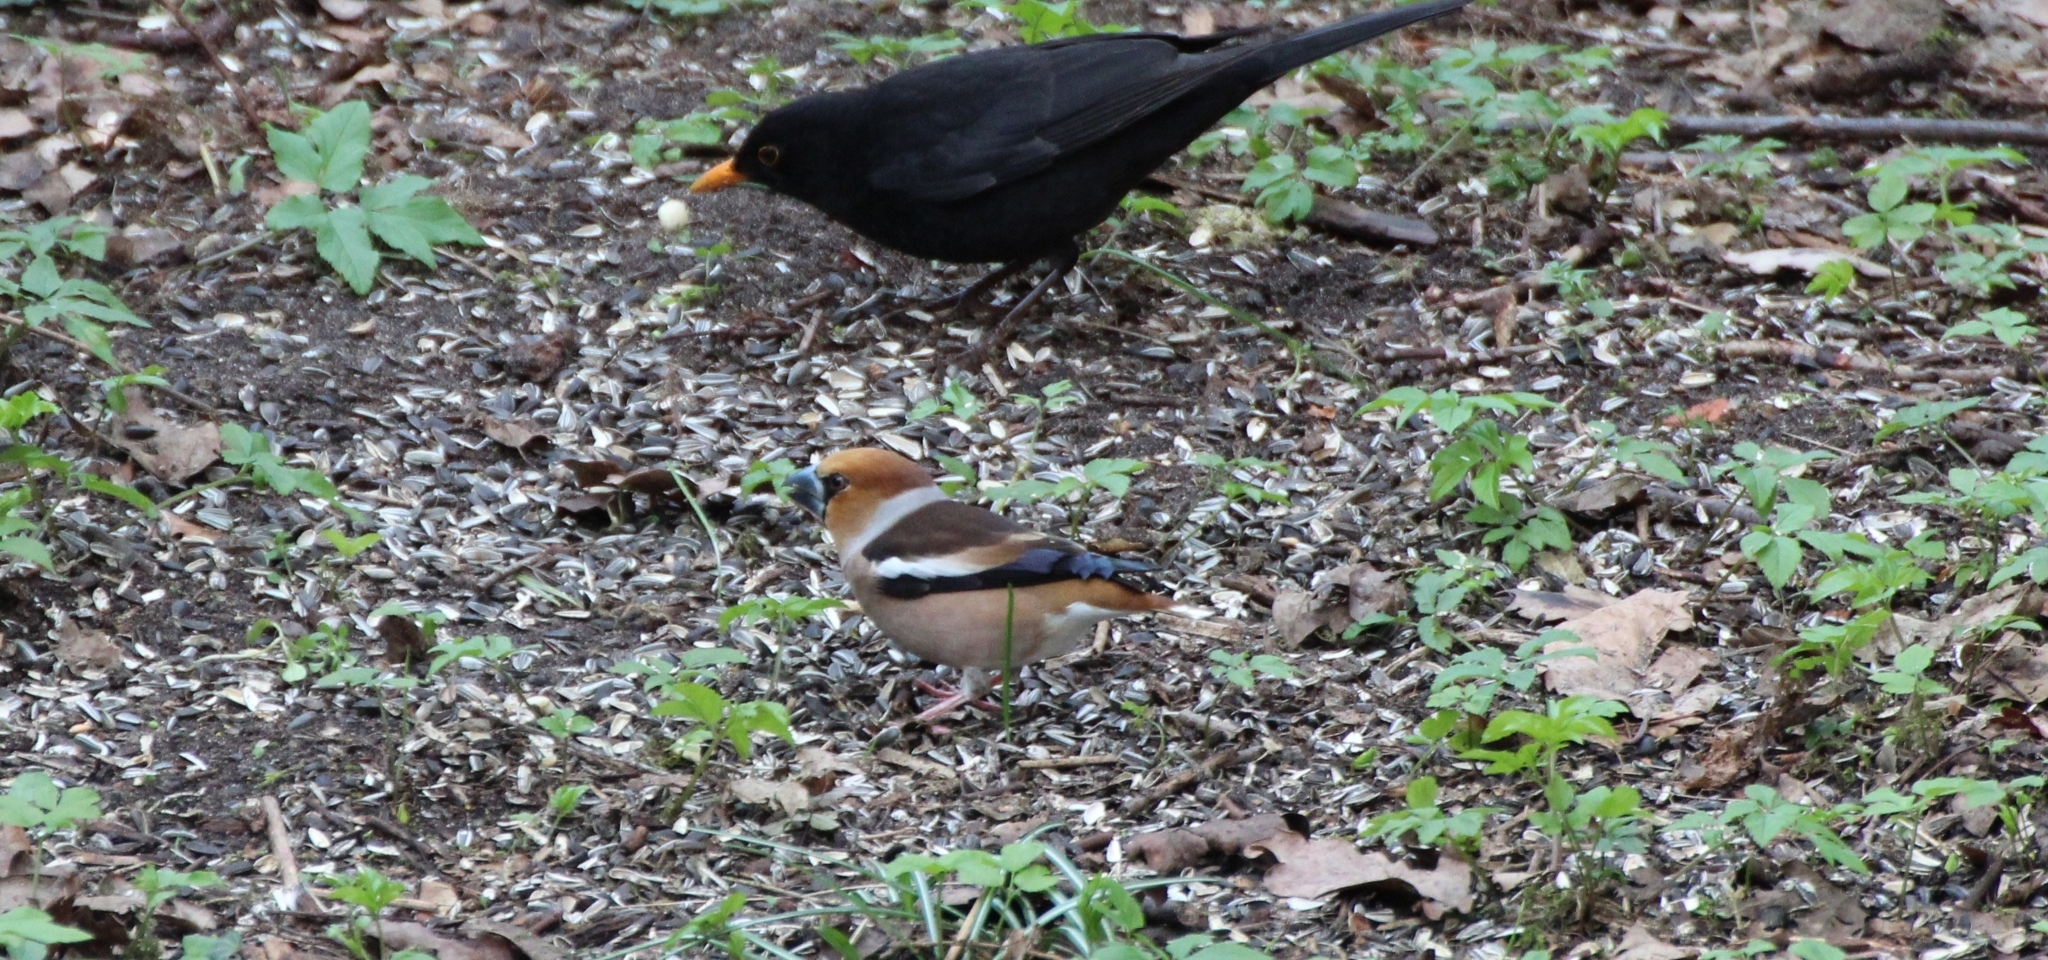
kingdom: Animalia
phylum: Chordata
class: Aves
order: Passeriformes
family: Fringillidae
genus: Coccothraustes
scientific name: Coccothraustes coccothraustes
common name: Hawfinch
